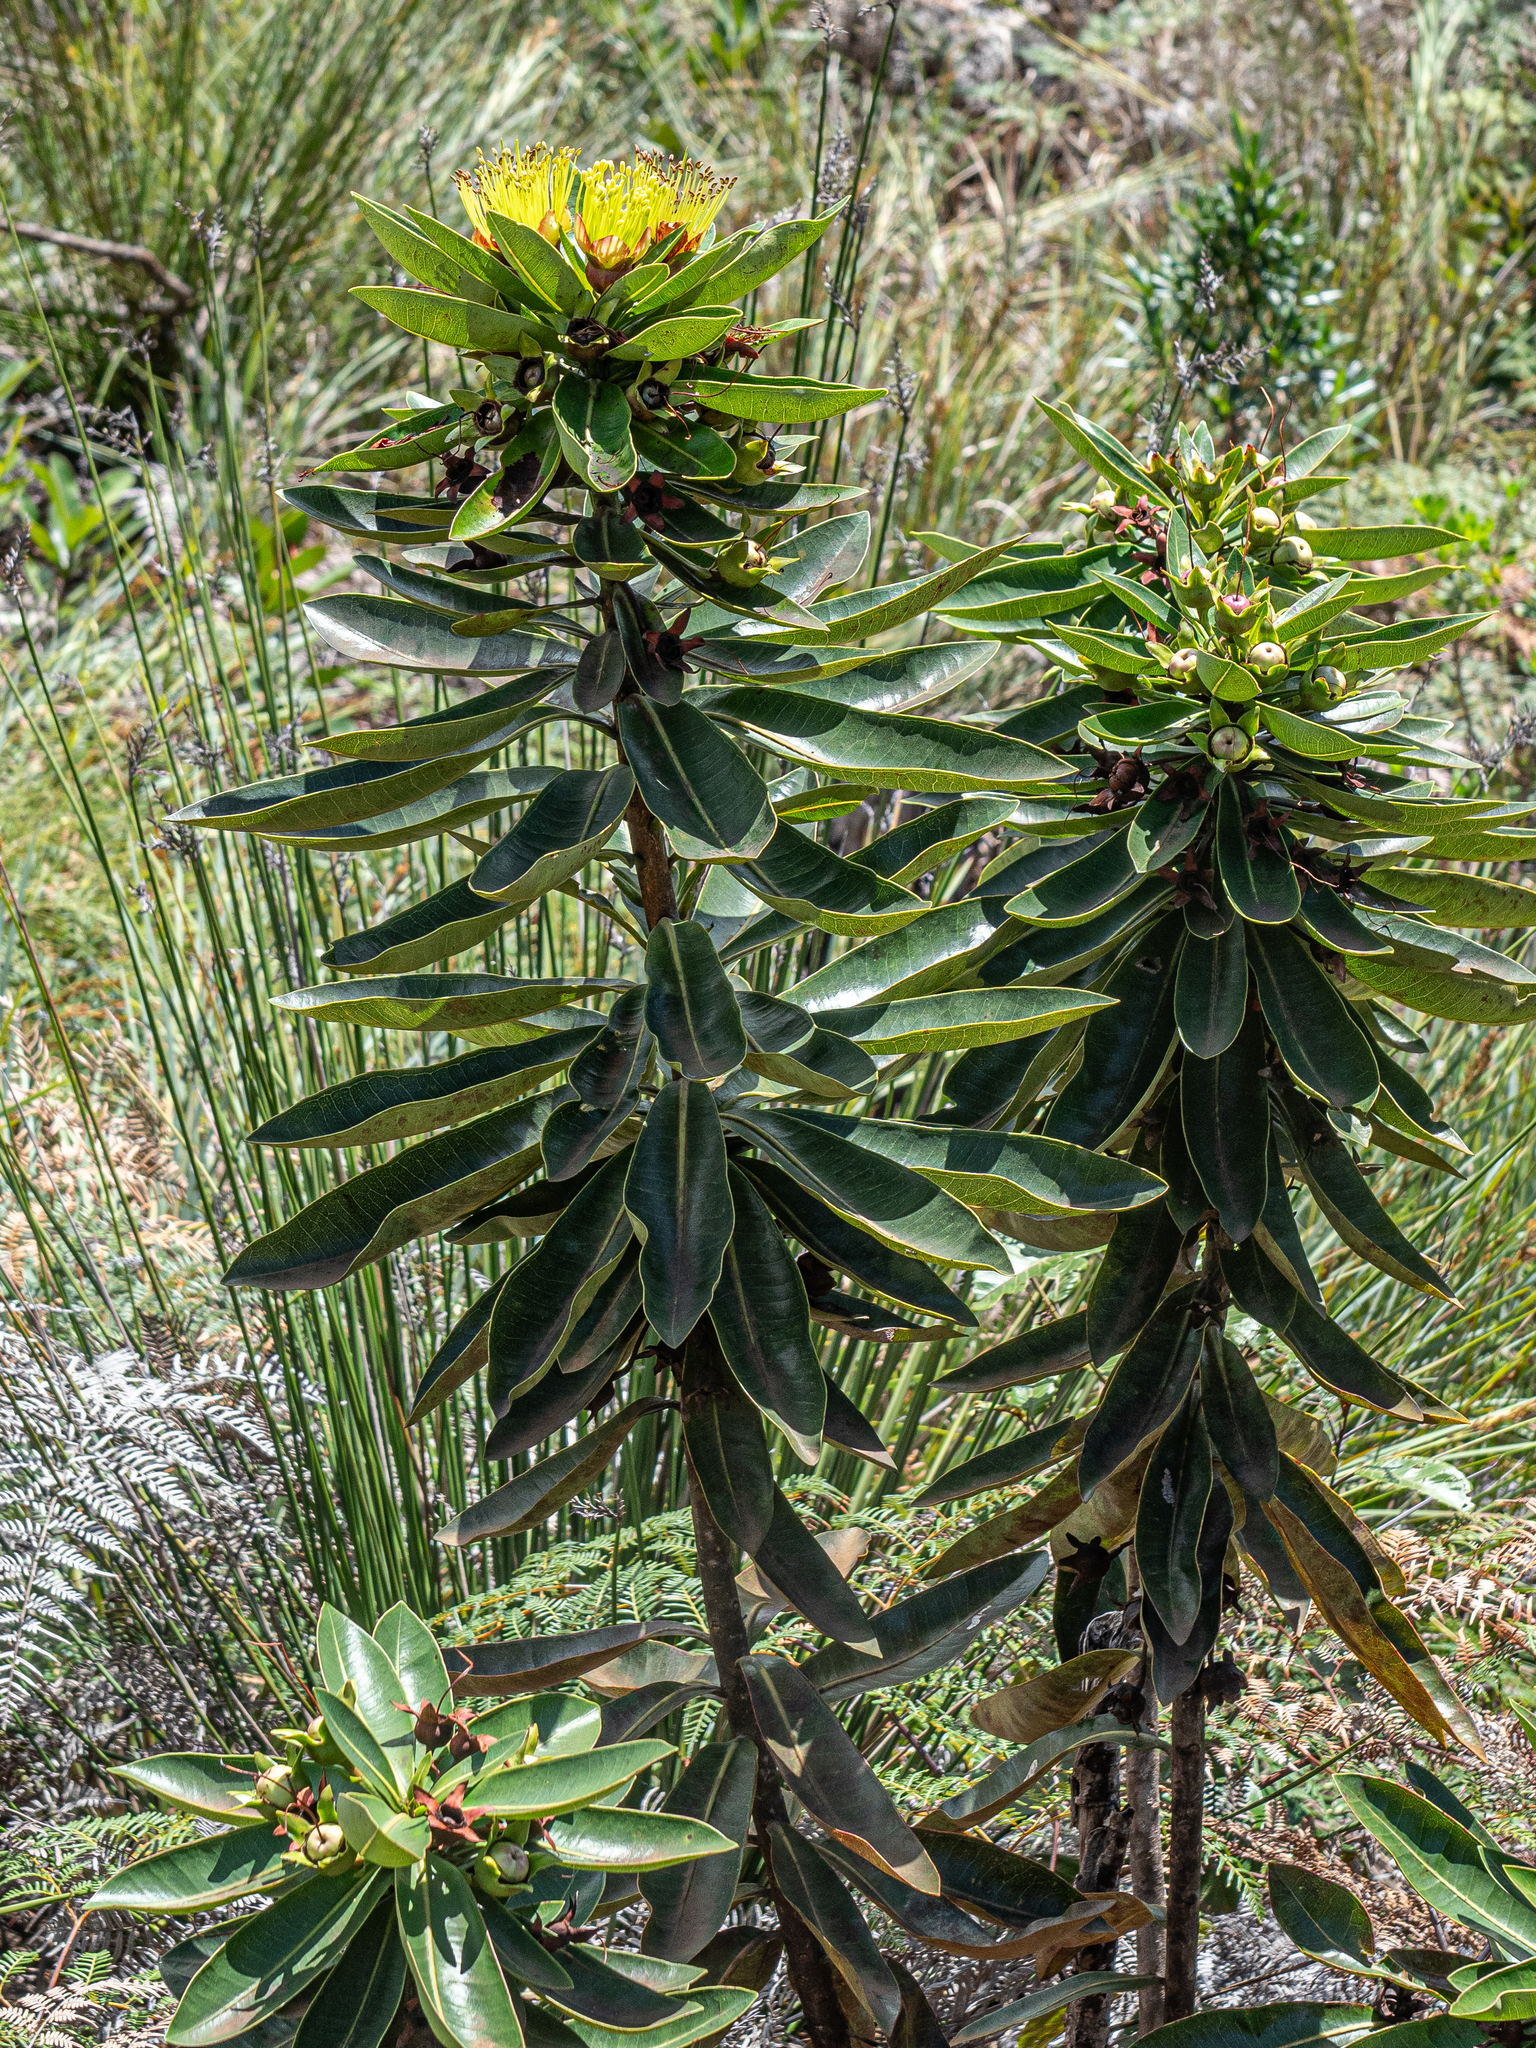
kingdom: Plantae
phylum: Tracheophyta
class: Magnoliopsida
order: Myrtales
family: Myrtaceae
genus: Xanthostemon
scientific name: Xanthostemon gugerlii
